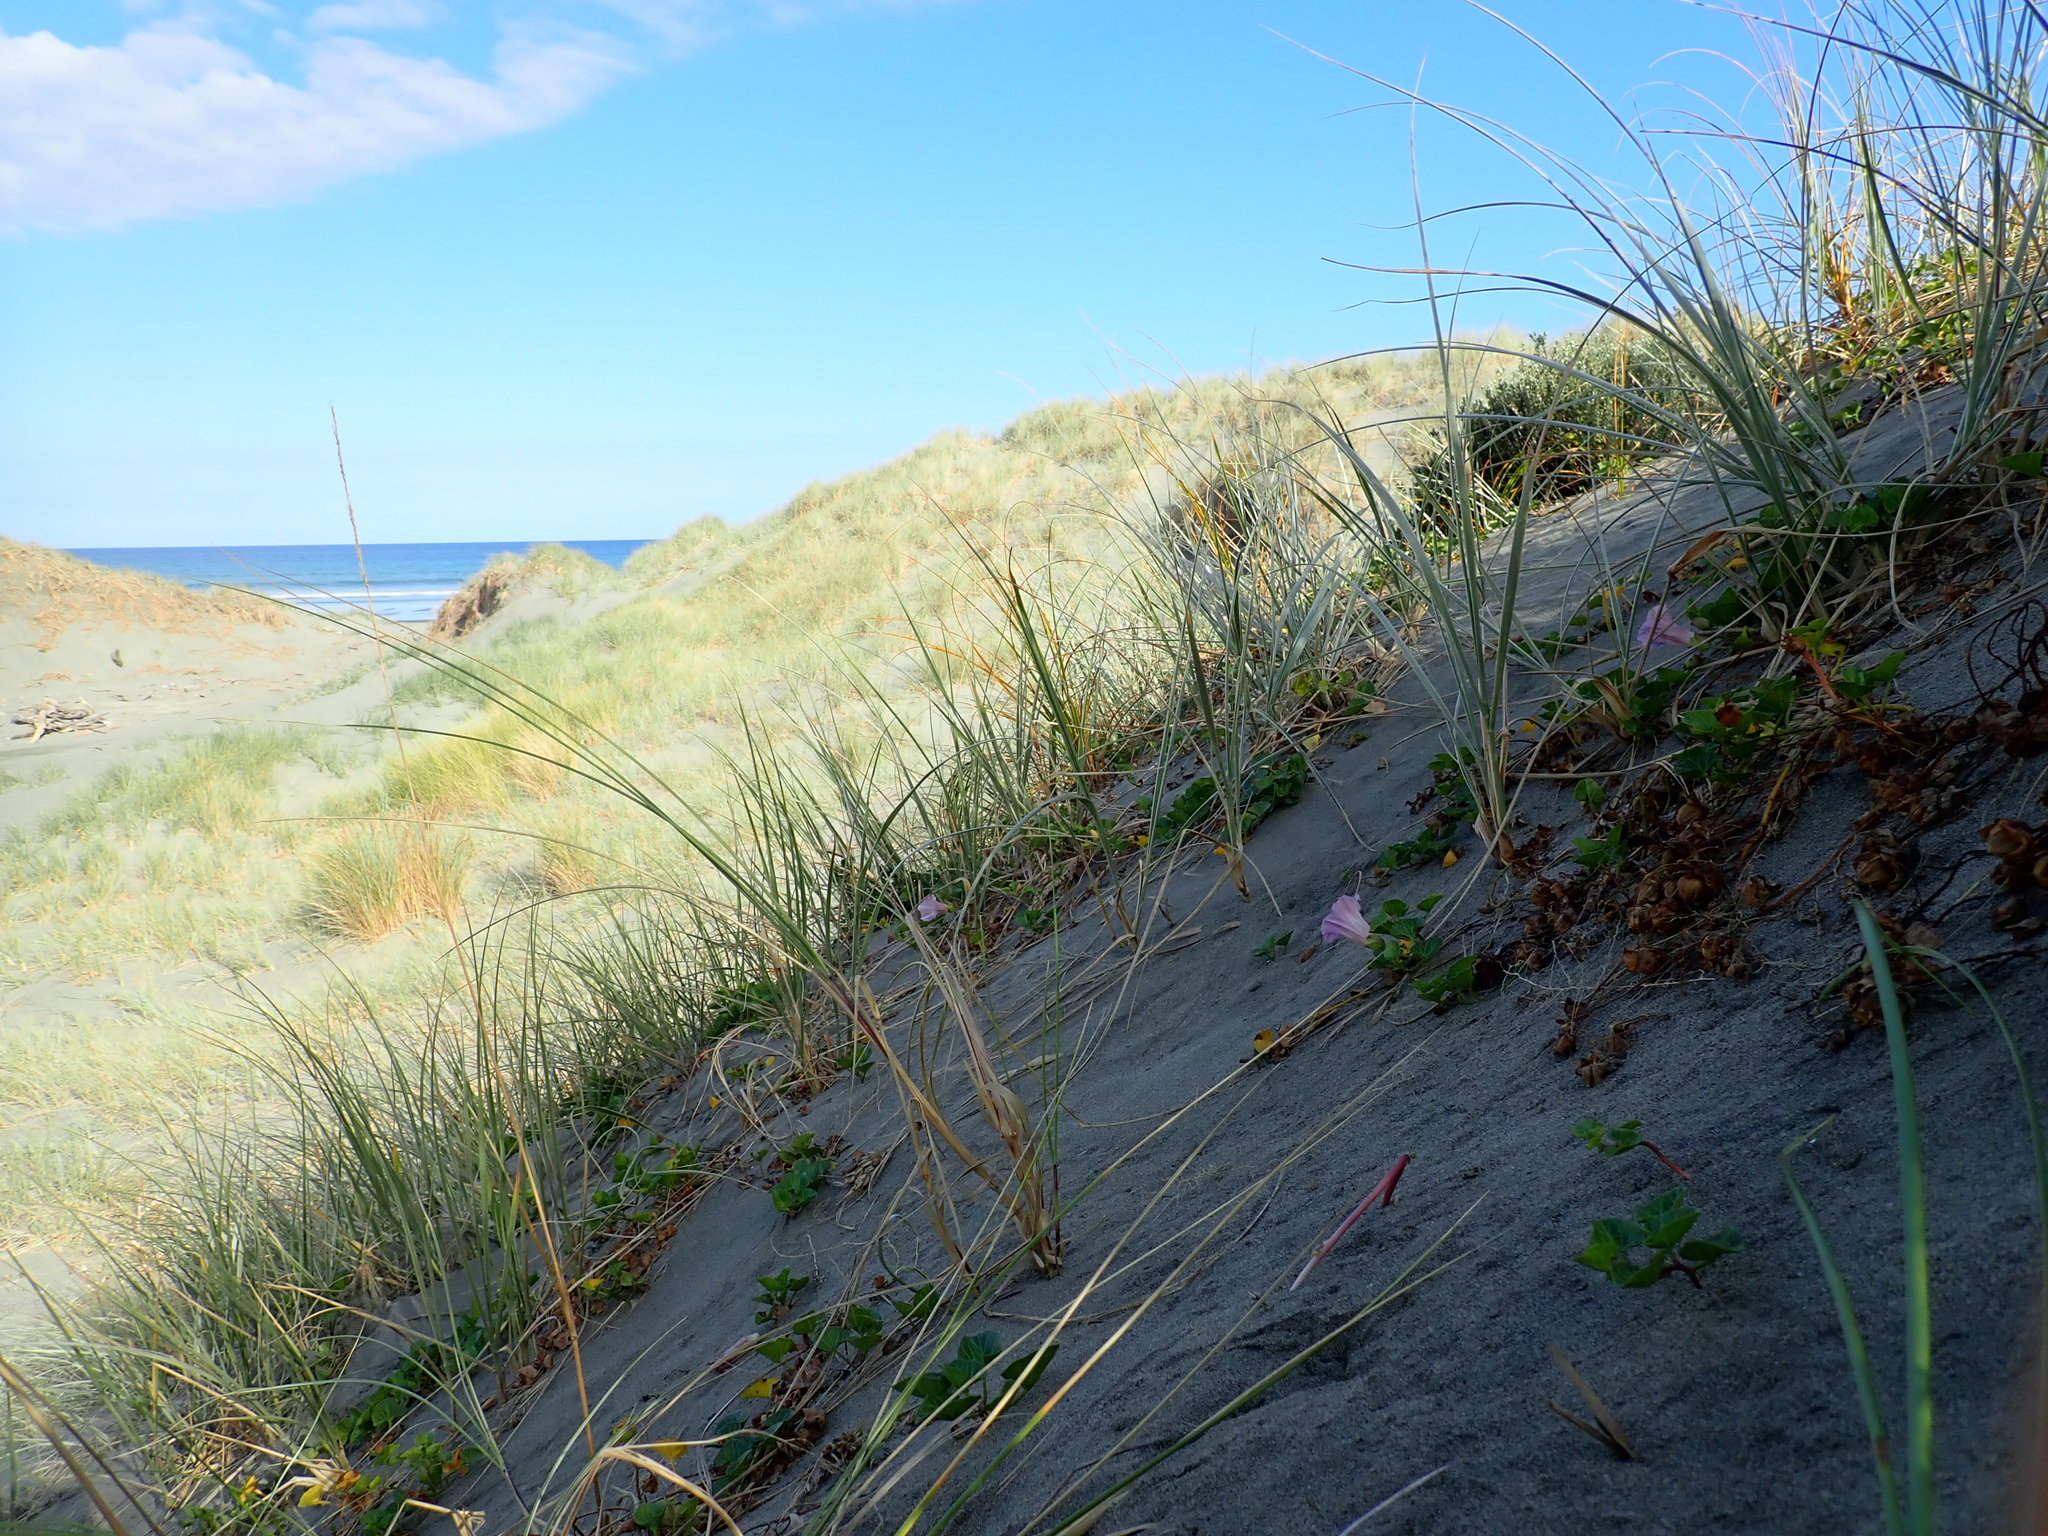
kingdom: Plantae
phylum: Tracheophyta
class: Magnoliopsida
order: Solanales
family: Convolvulaceae
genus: Calystegia
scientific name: Calystegia soldanella
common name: Sea bindweed
